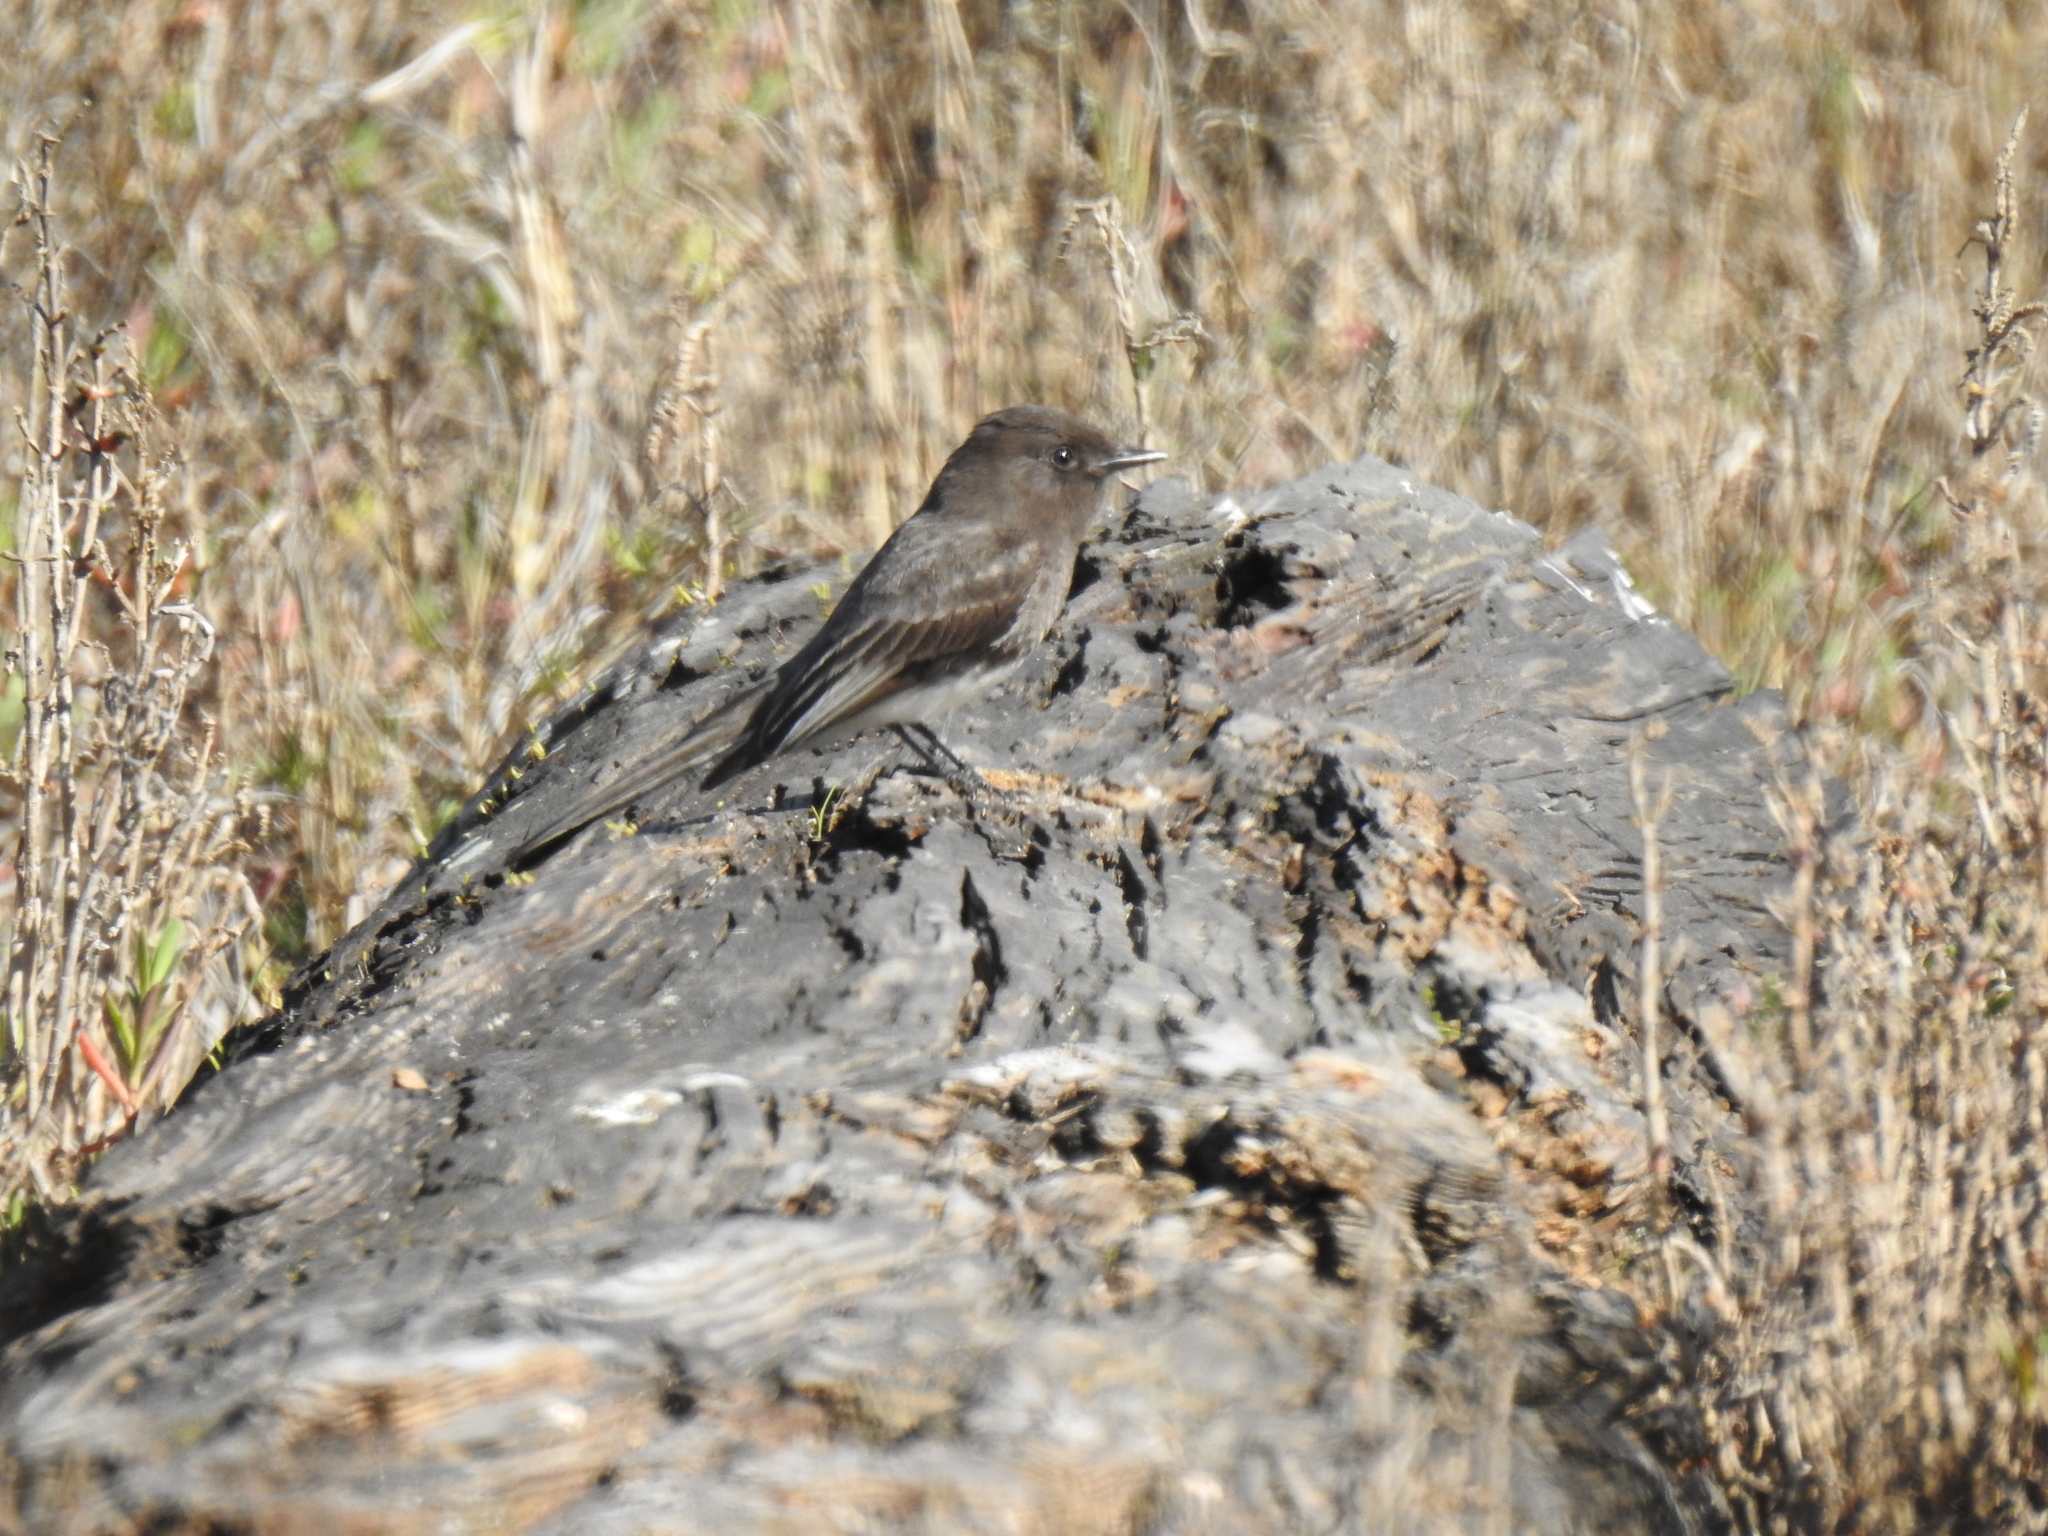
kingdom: Animalia
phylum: Chordata
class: Aves
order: Passeriformes
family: Tyrannidae
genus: Sayornis
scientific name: Sayornis nigricans
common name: Black phoebe
